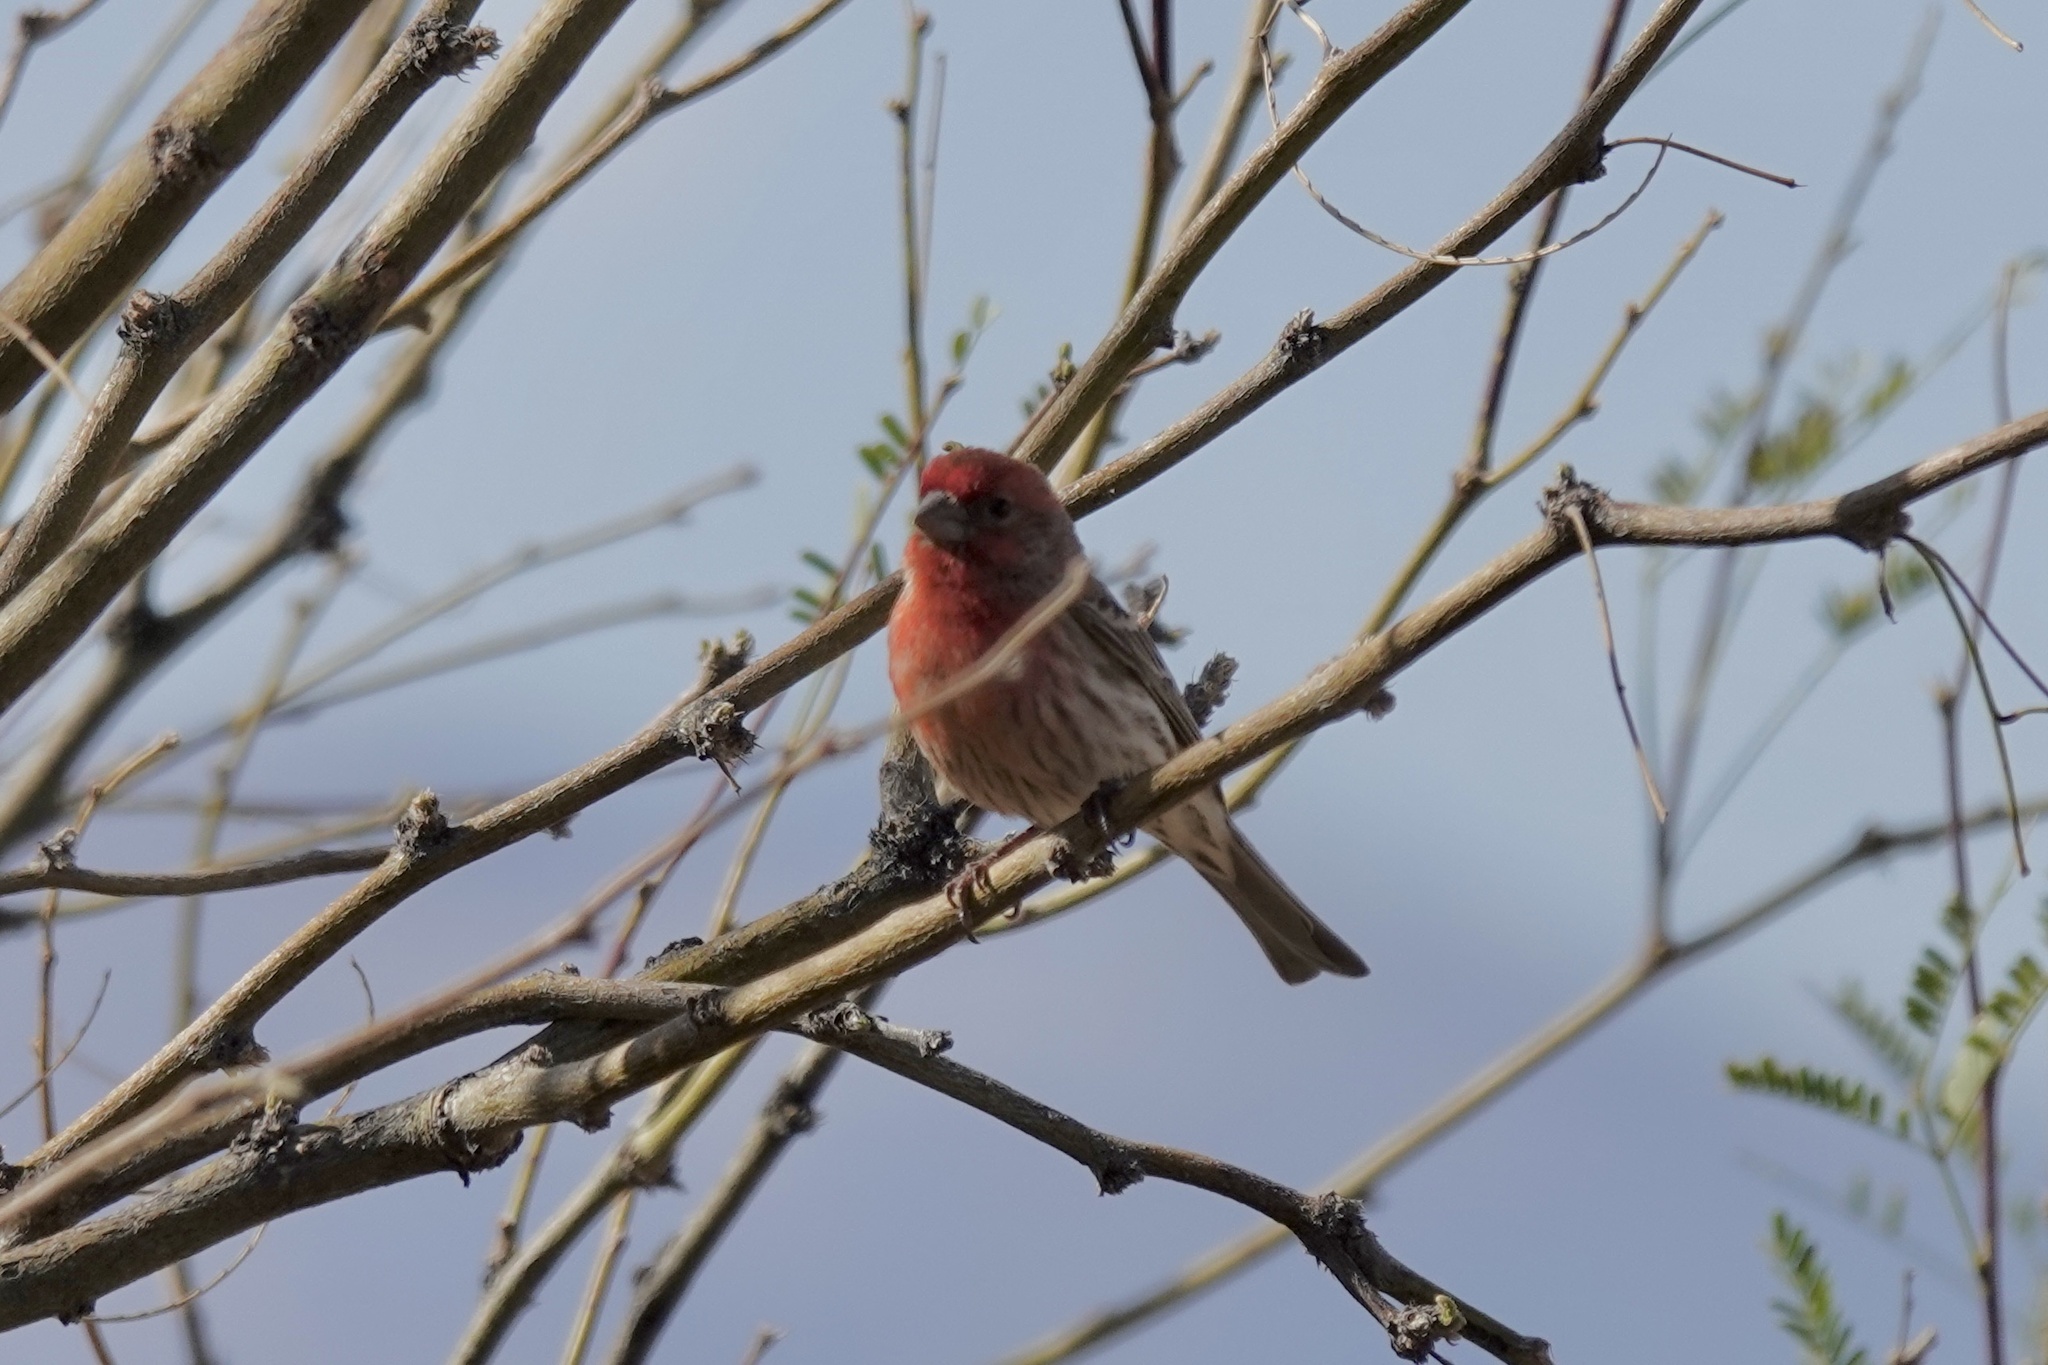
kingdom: Animalia
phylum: Chordata
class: Aves
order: Passeriformes
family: Fringillidae
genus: Haemorhous
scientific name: Haemorhous mexicanus
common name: House finch
